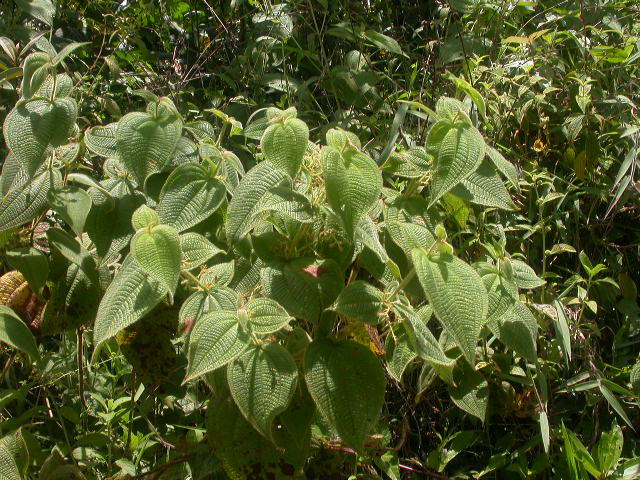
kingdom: Plantae
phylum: Tracheophyta
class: Magnoliopsida
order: Myrtales
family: Melastomataceae
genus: Miconia
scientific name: Miconia domociliata
